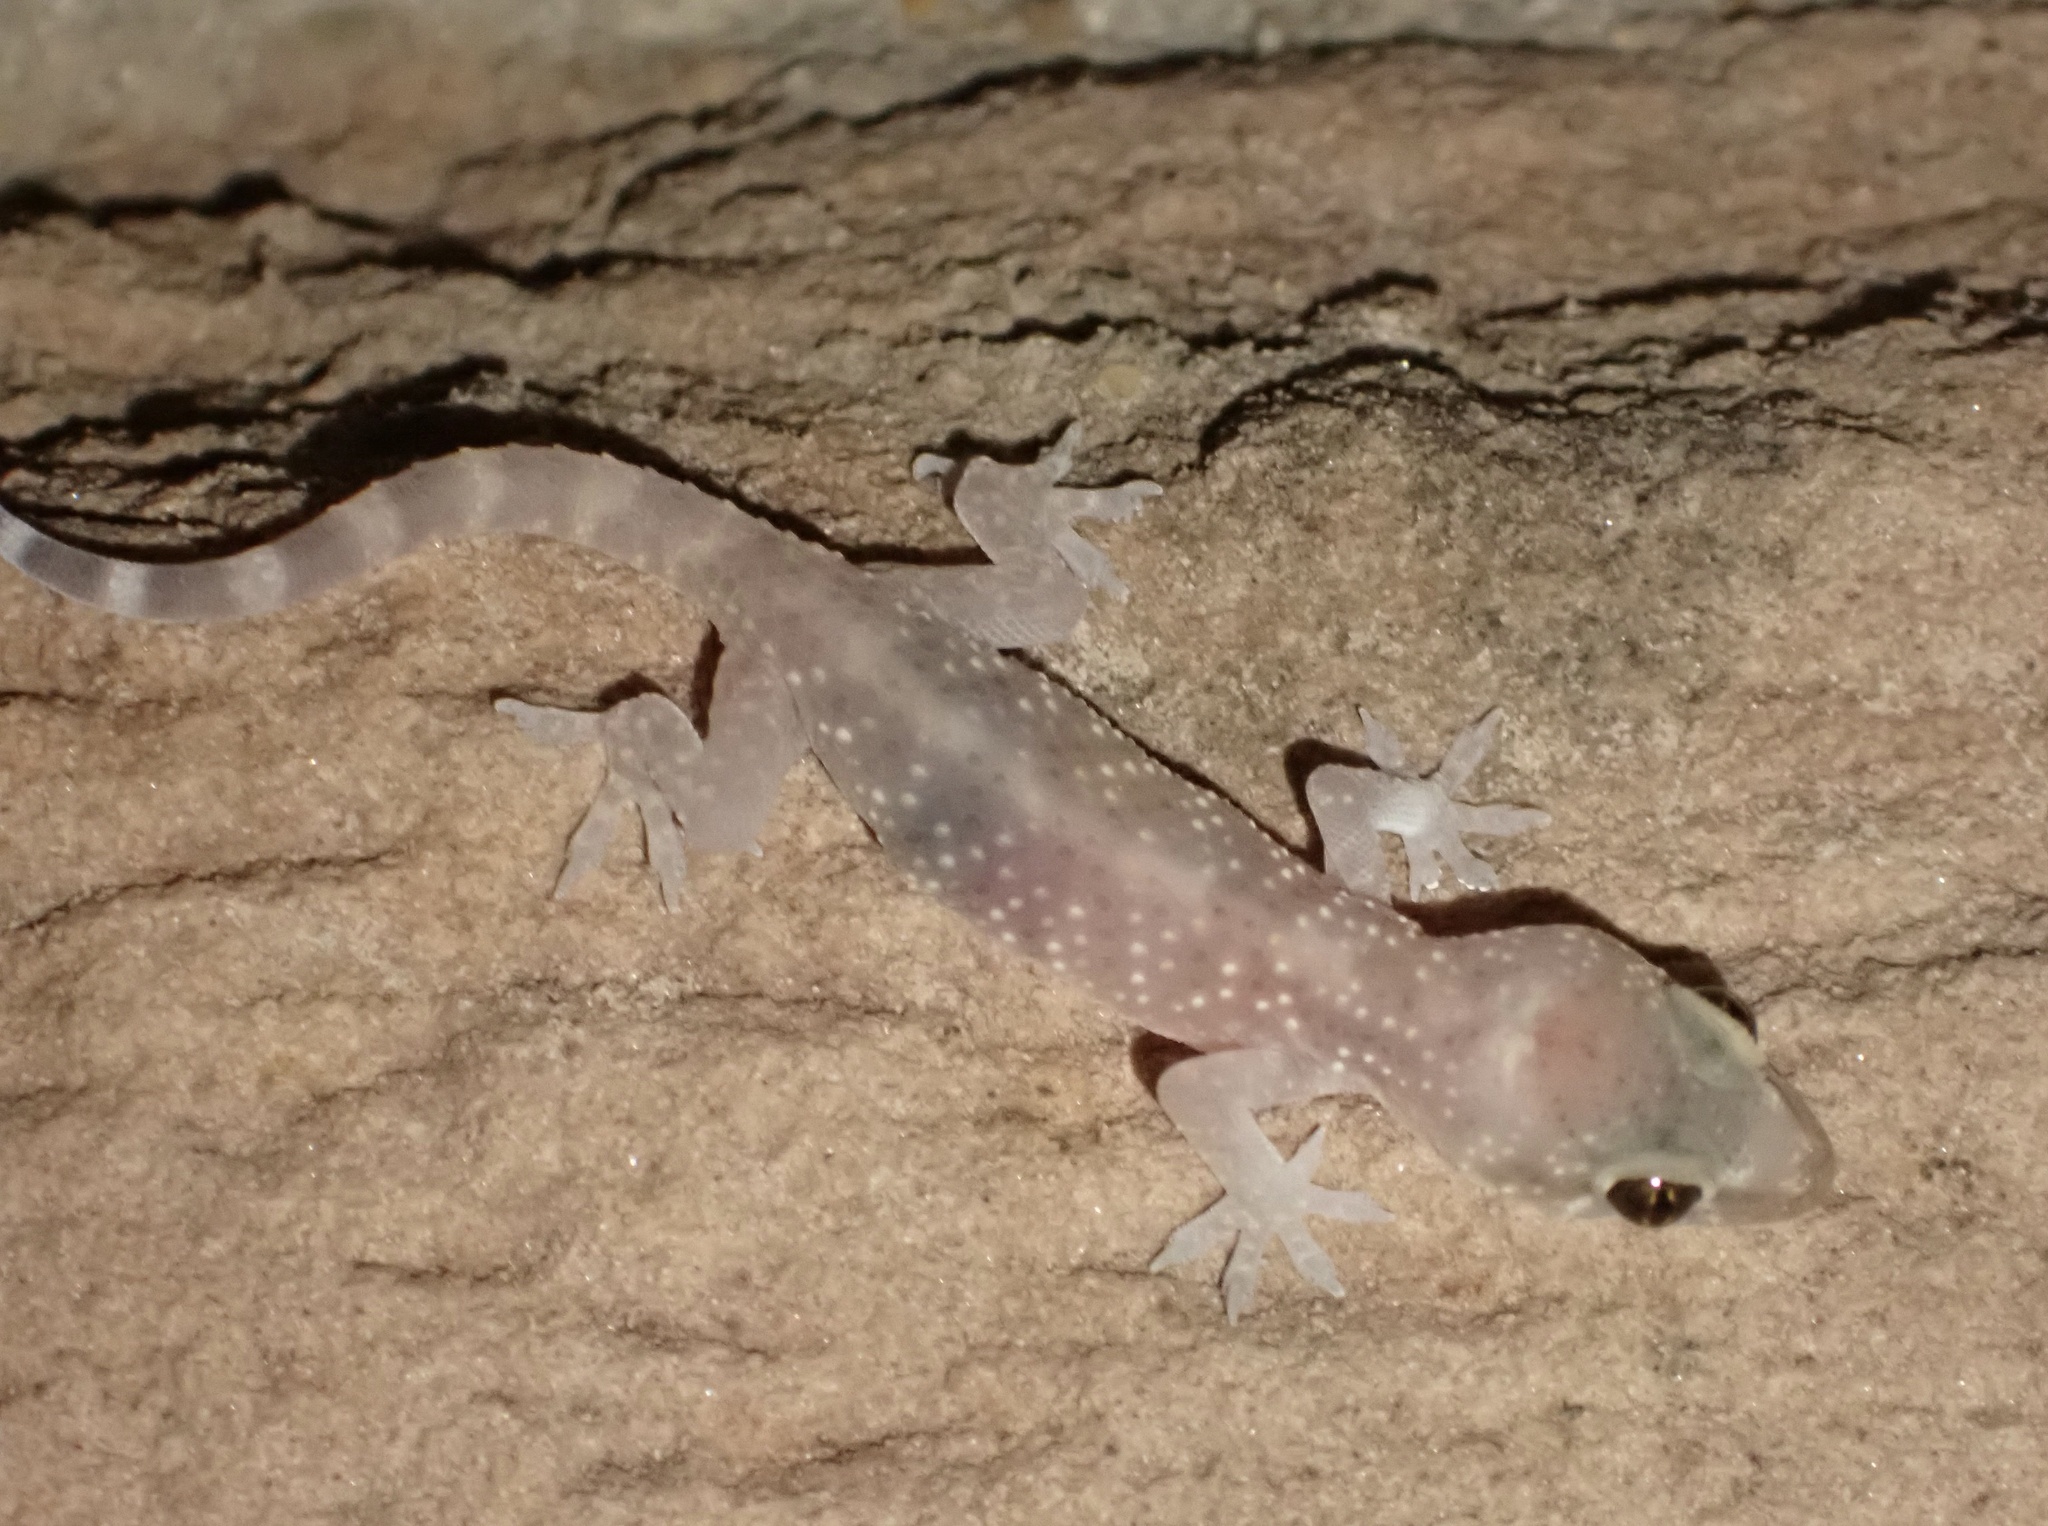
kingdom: Animalia
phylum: Chordata
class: Squamata
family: Gekkonidae
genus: Hemidactylus
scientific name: Hemidactylus turcicus
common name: Turkish gecko
